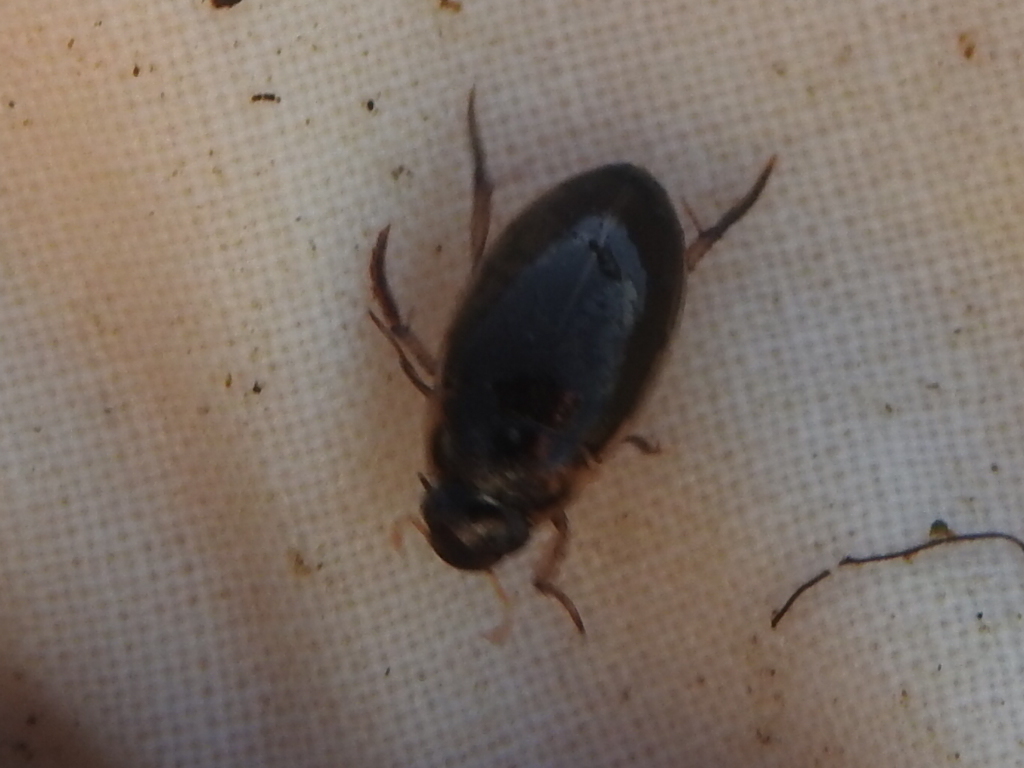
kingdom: Animalia
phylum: Arthropoda
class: Insecta
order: Coleoptera
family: Hydrophilidae
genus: Tropisternus
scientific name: Tropisternus lateralis
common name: Lateral-banded water scavenger beetle
